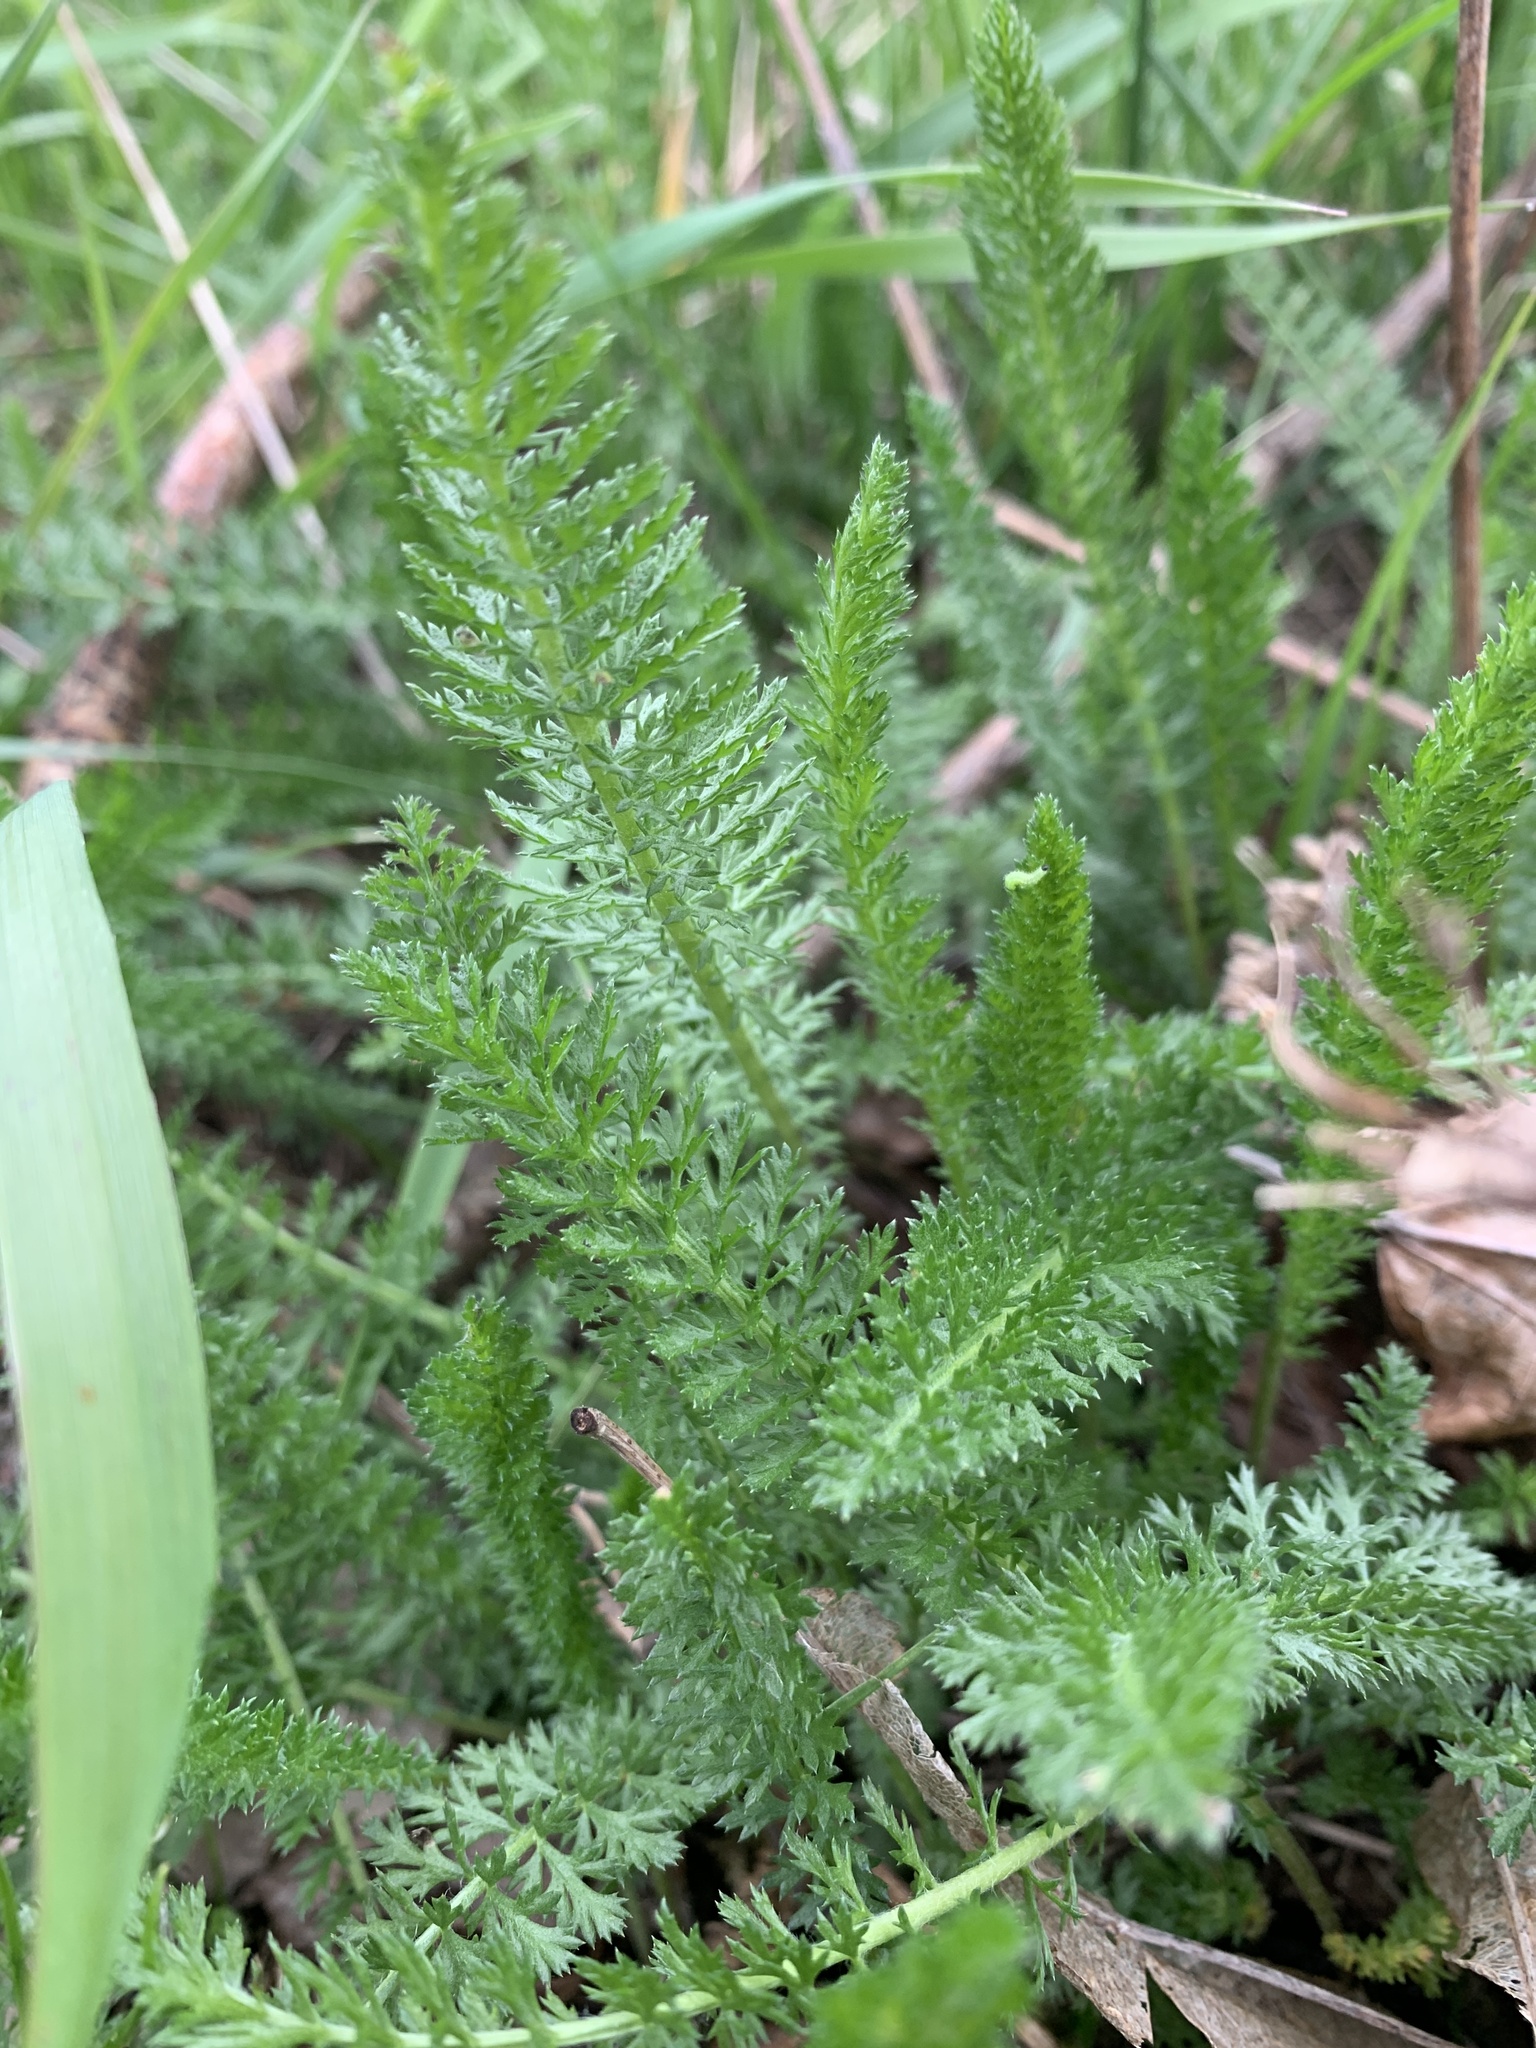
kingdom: Plantae
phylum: Tracheophyta
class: Magnoliopsida
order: Asterales
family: Asteraceae
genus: Achillea
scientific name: Achillea millefolium
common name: Yarrow
